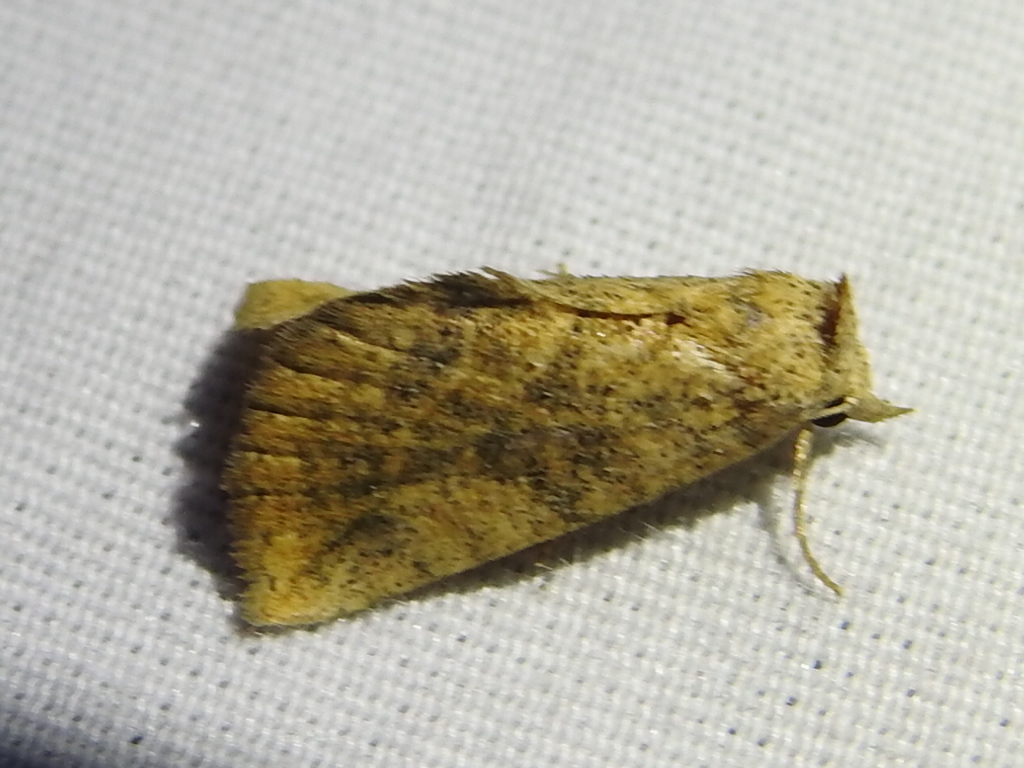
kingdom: Animalia
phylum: Arthropoda
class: Insecta
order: Lepidoptera
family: Erebidae
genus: Isogona
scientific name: Isogona snowi
